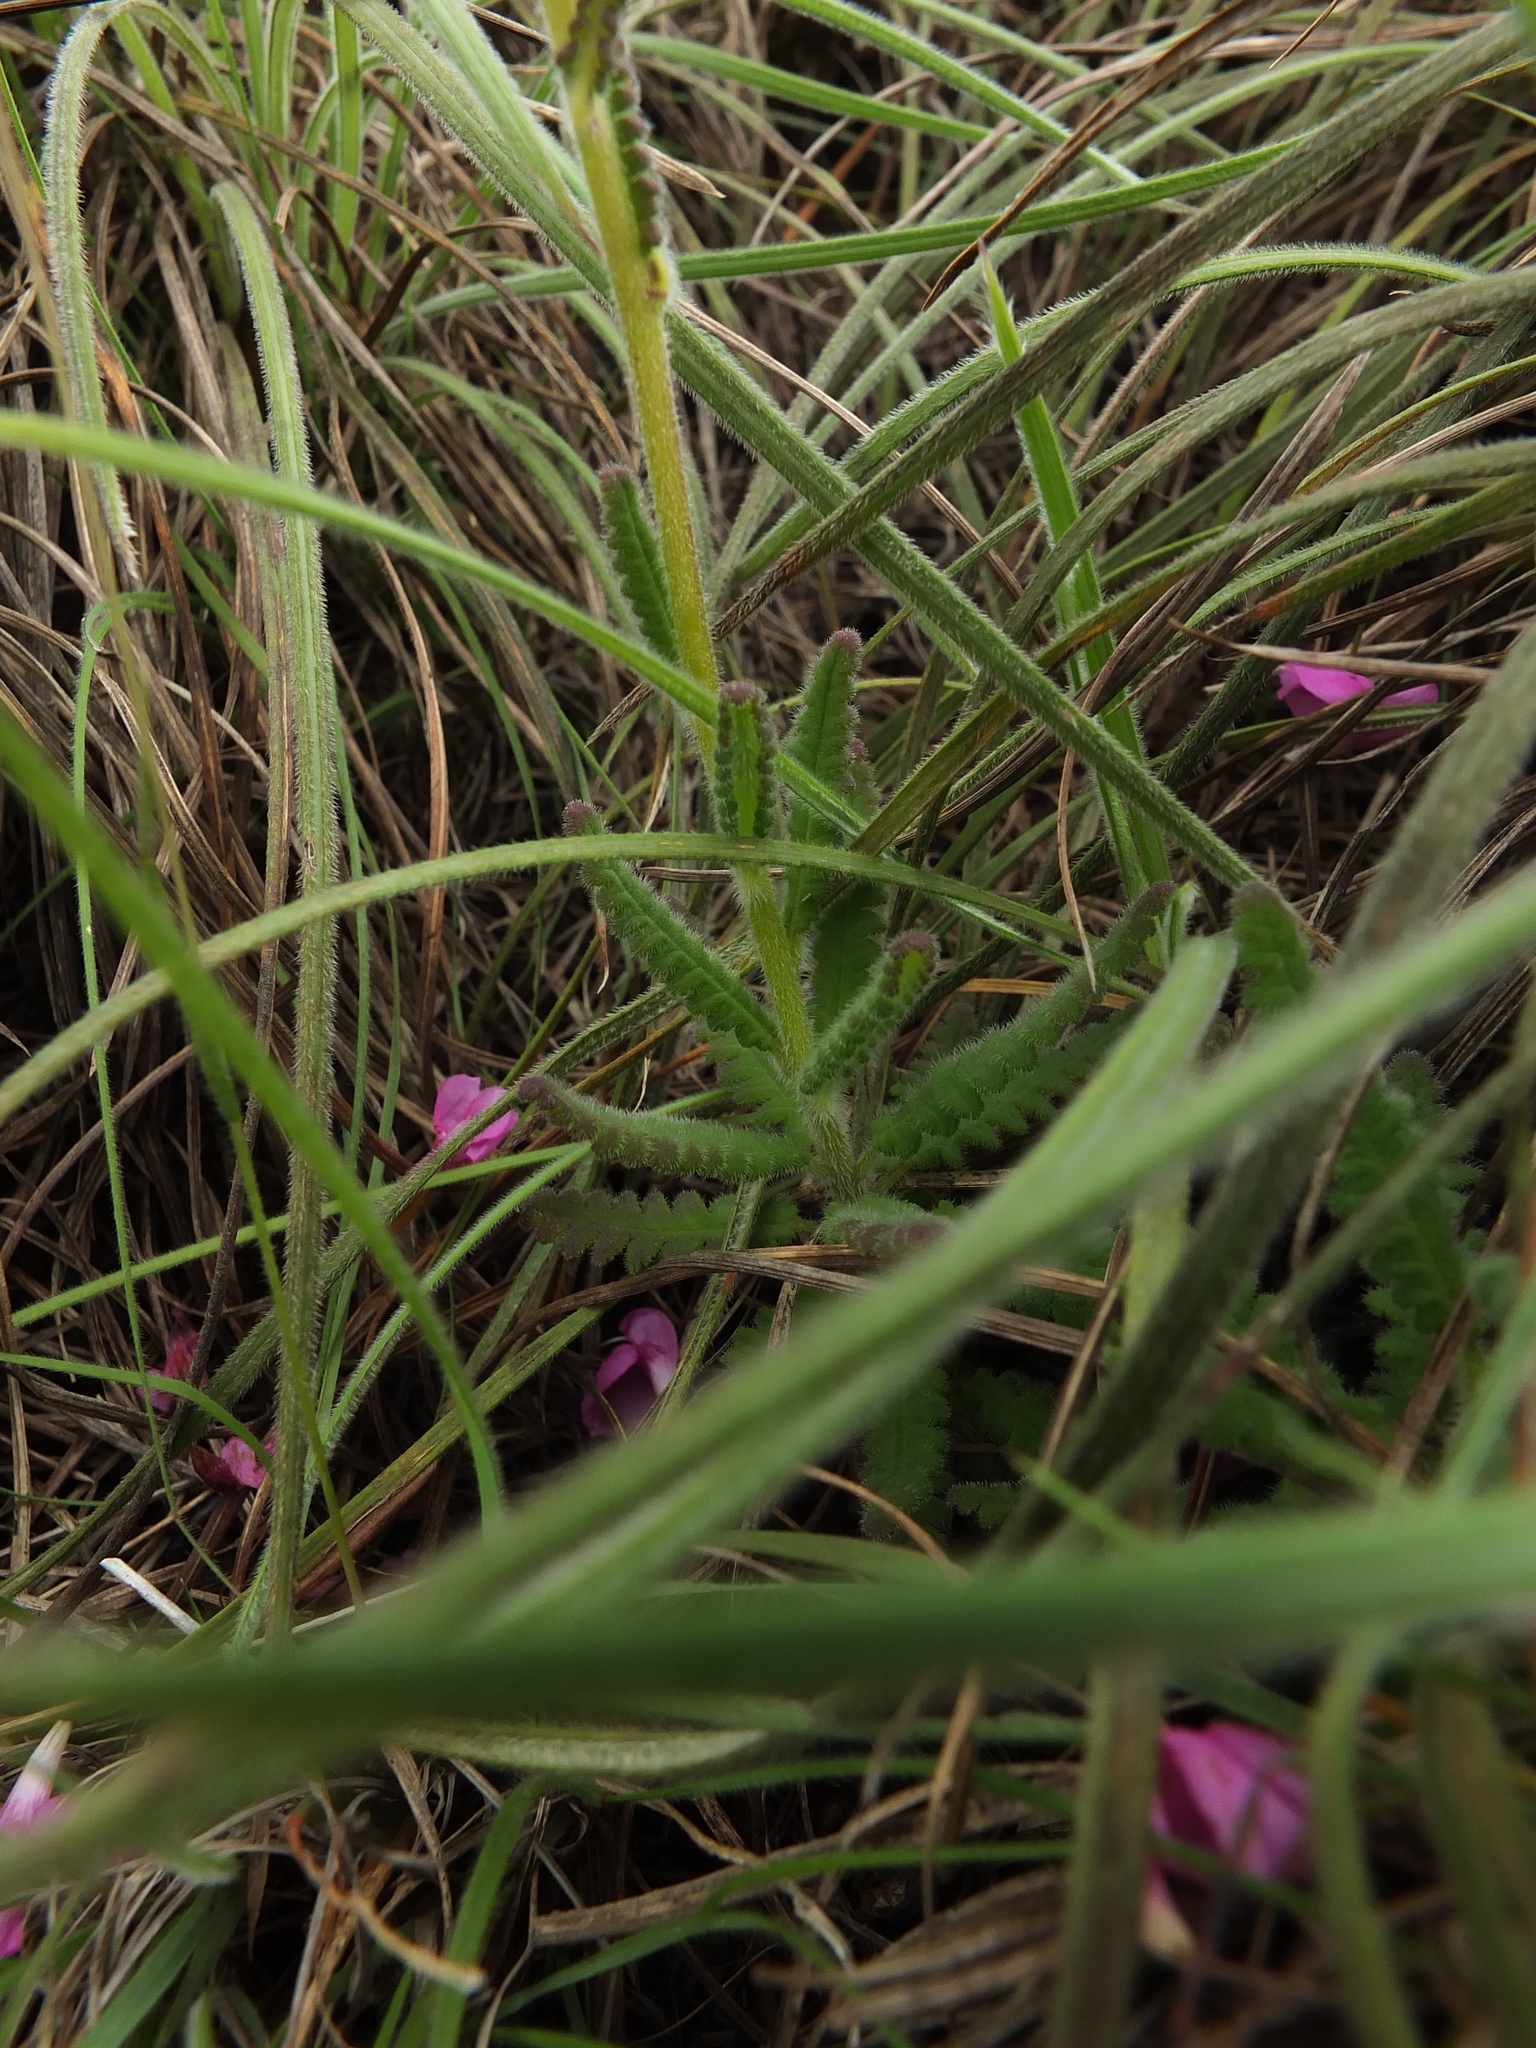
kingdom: Plantae
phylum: Tracheophyta
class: Magnoliopsida
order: Lamiales
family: Orobanchaceae
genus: Pedicularis
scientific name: Pedicularis zeylanica
